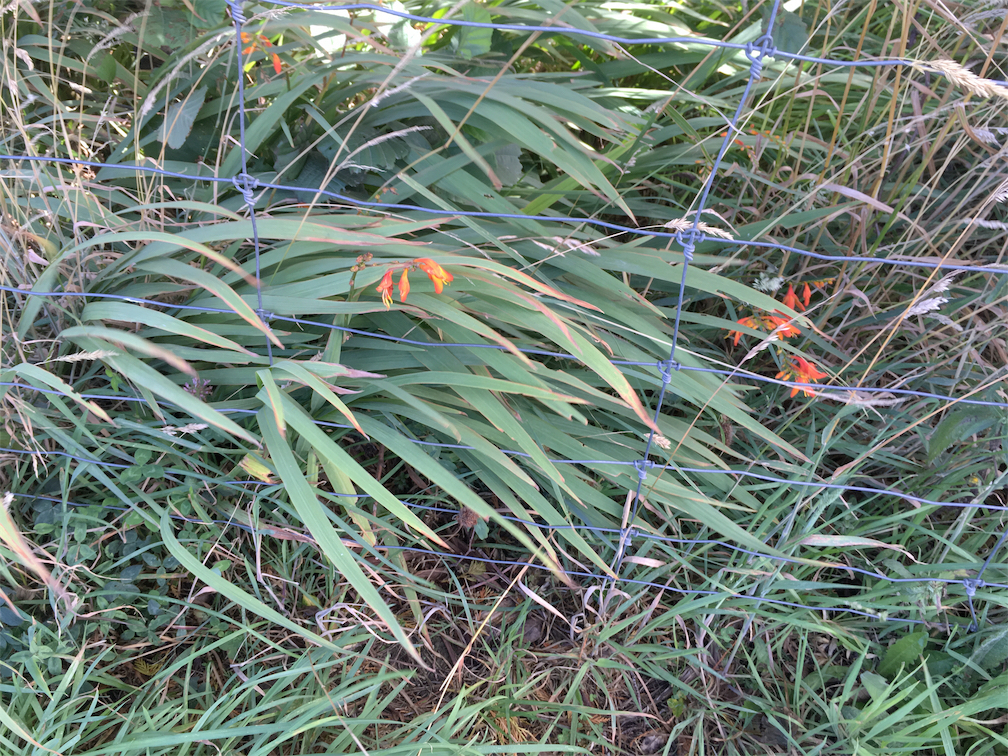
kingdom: Plantae
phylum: Tracheophyta
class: Liliopsida
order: Asparagales
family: Iridaceae
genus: Crocosmia
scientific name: Crocosmia crocosmiiflora
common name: Montbretia
